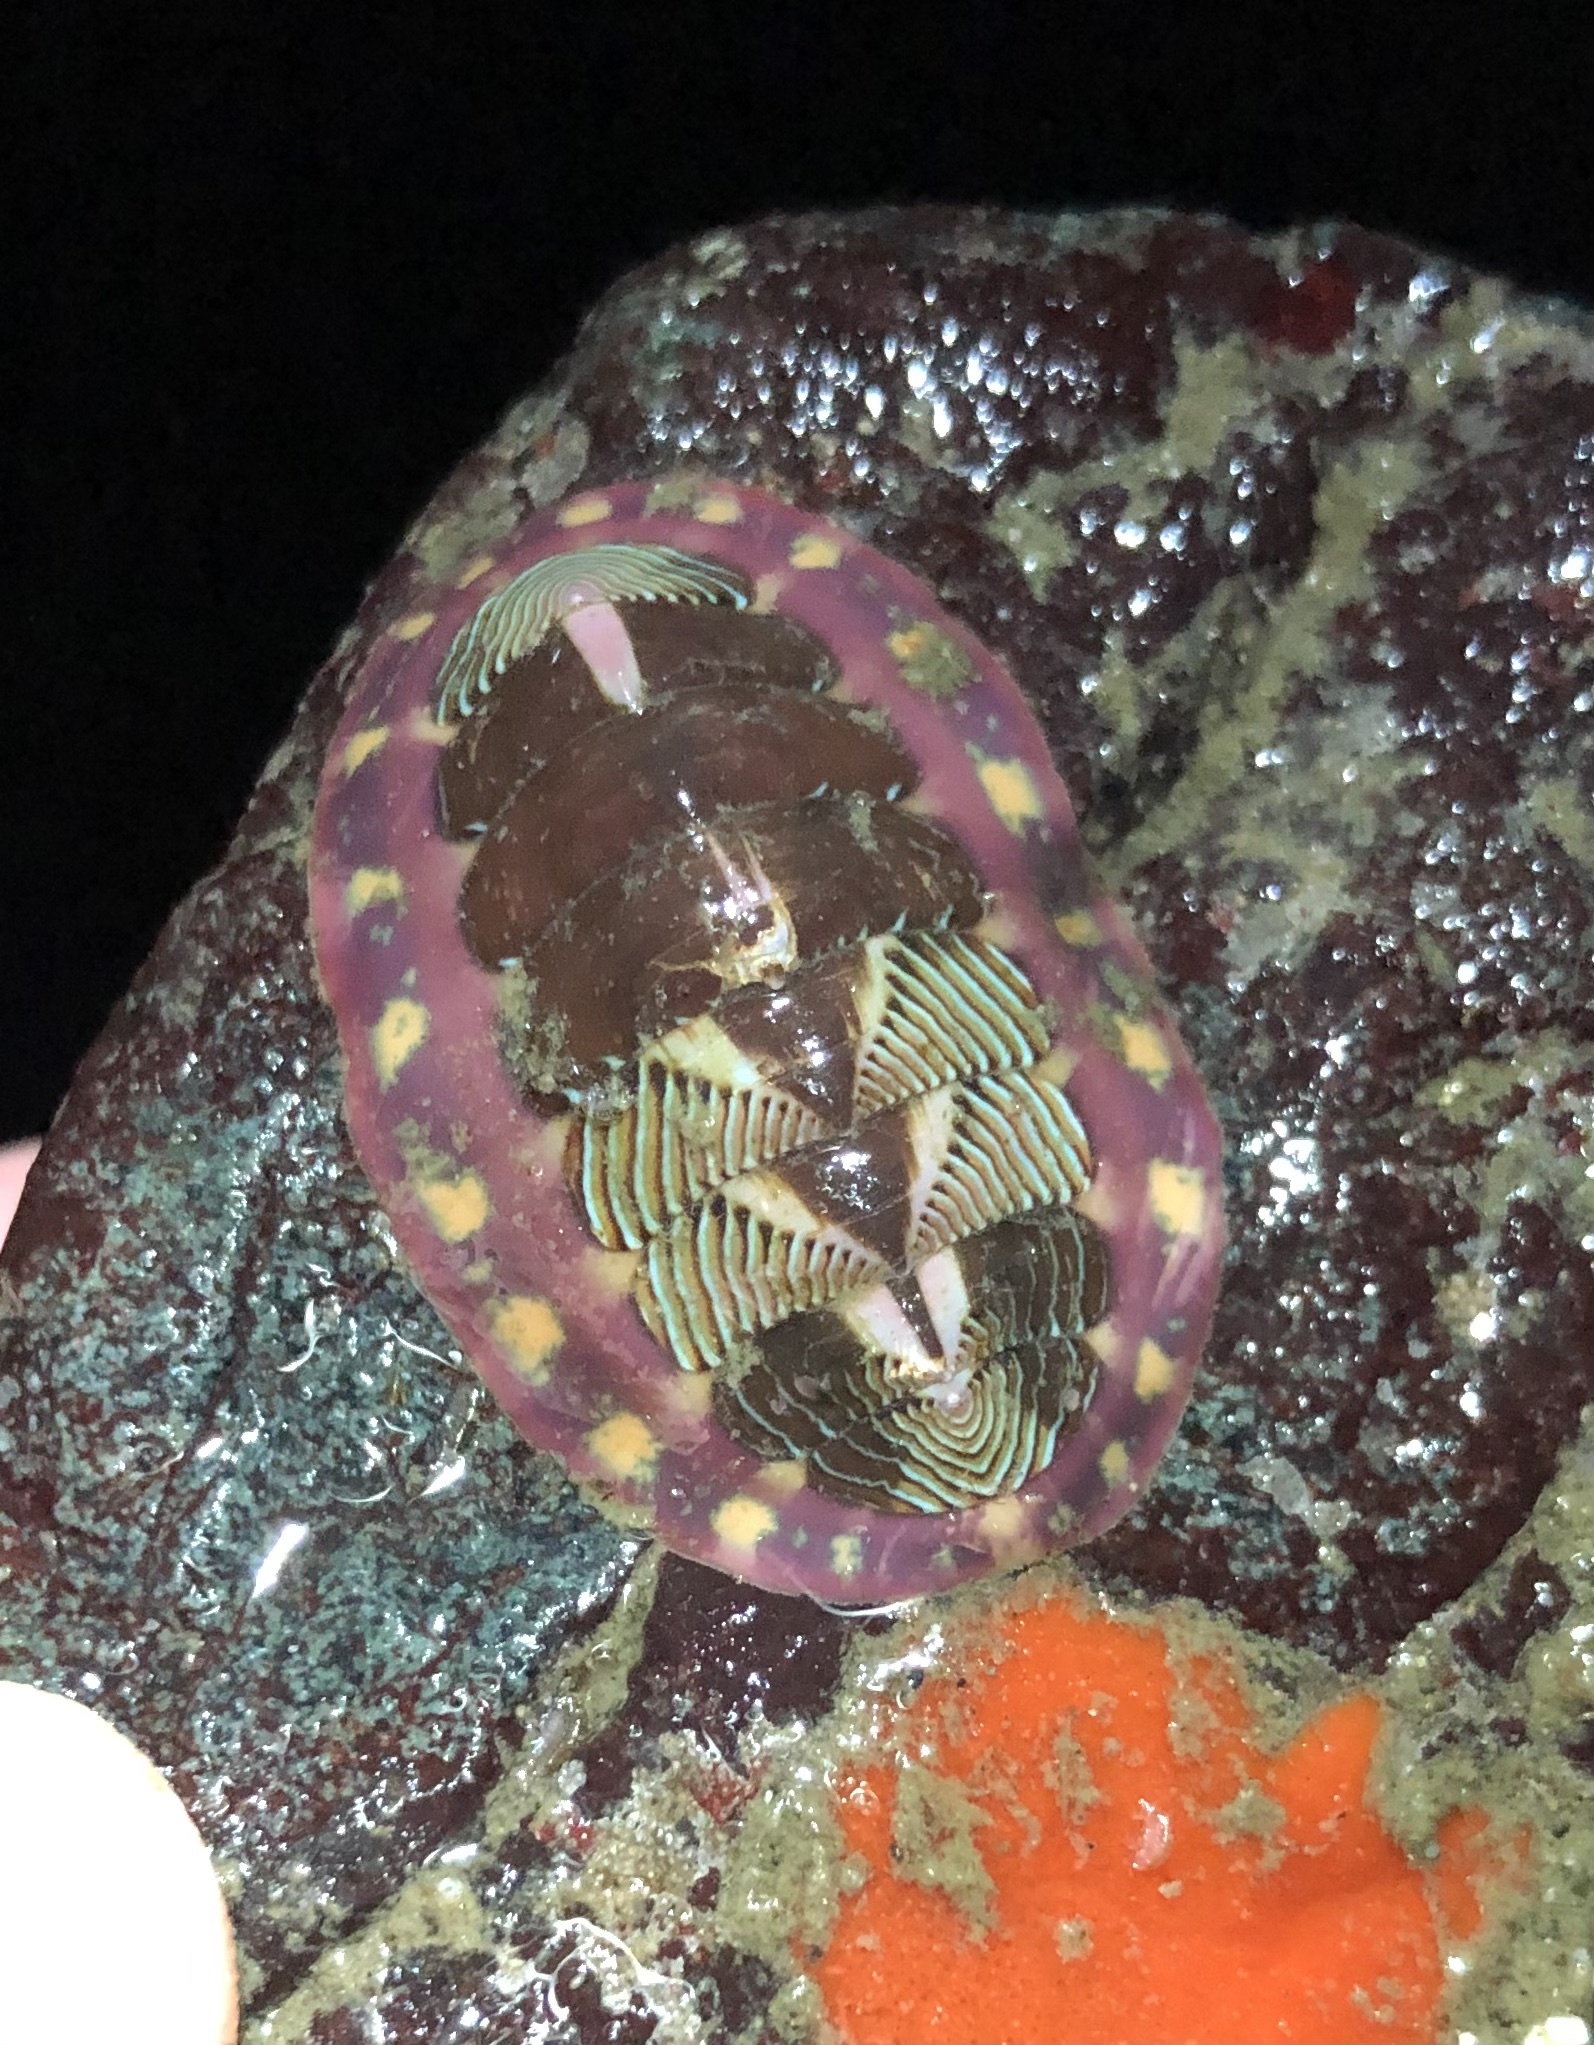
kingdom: Animalia
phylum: Mollusca
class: Polyplacophora
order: Chitonida
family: Tonicellidae
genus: Tonicella
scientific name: Tonicella lineata
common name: Lined chiton
